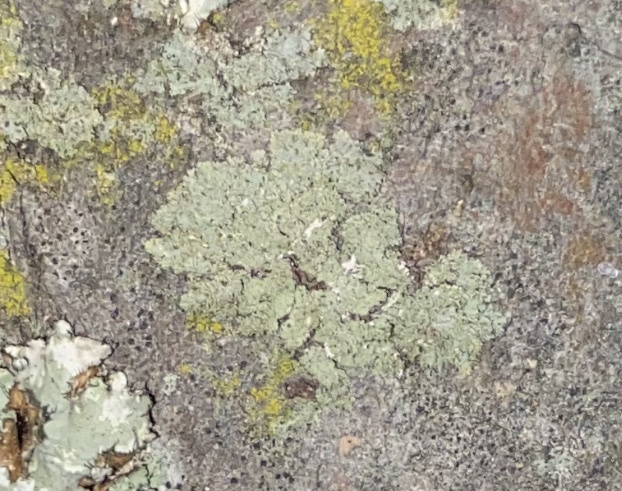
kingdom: Fungi
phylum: Ascomycota
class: Lecanoromycetes
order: Caliciales
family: Physciaceae
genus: Physcia
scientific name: Physcia millegrana
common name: Rosette lichen
